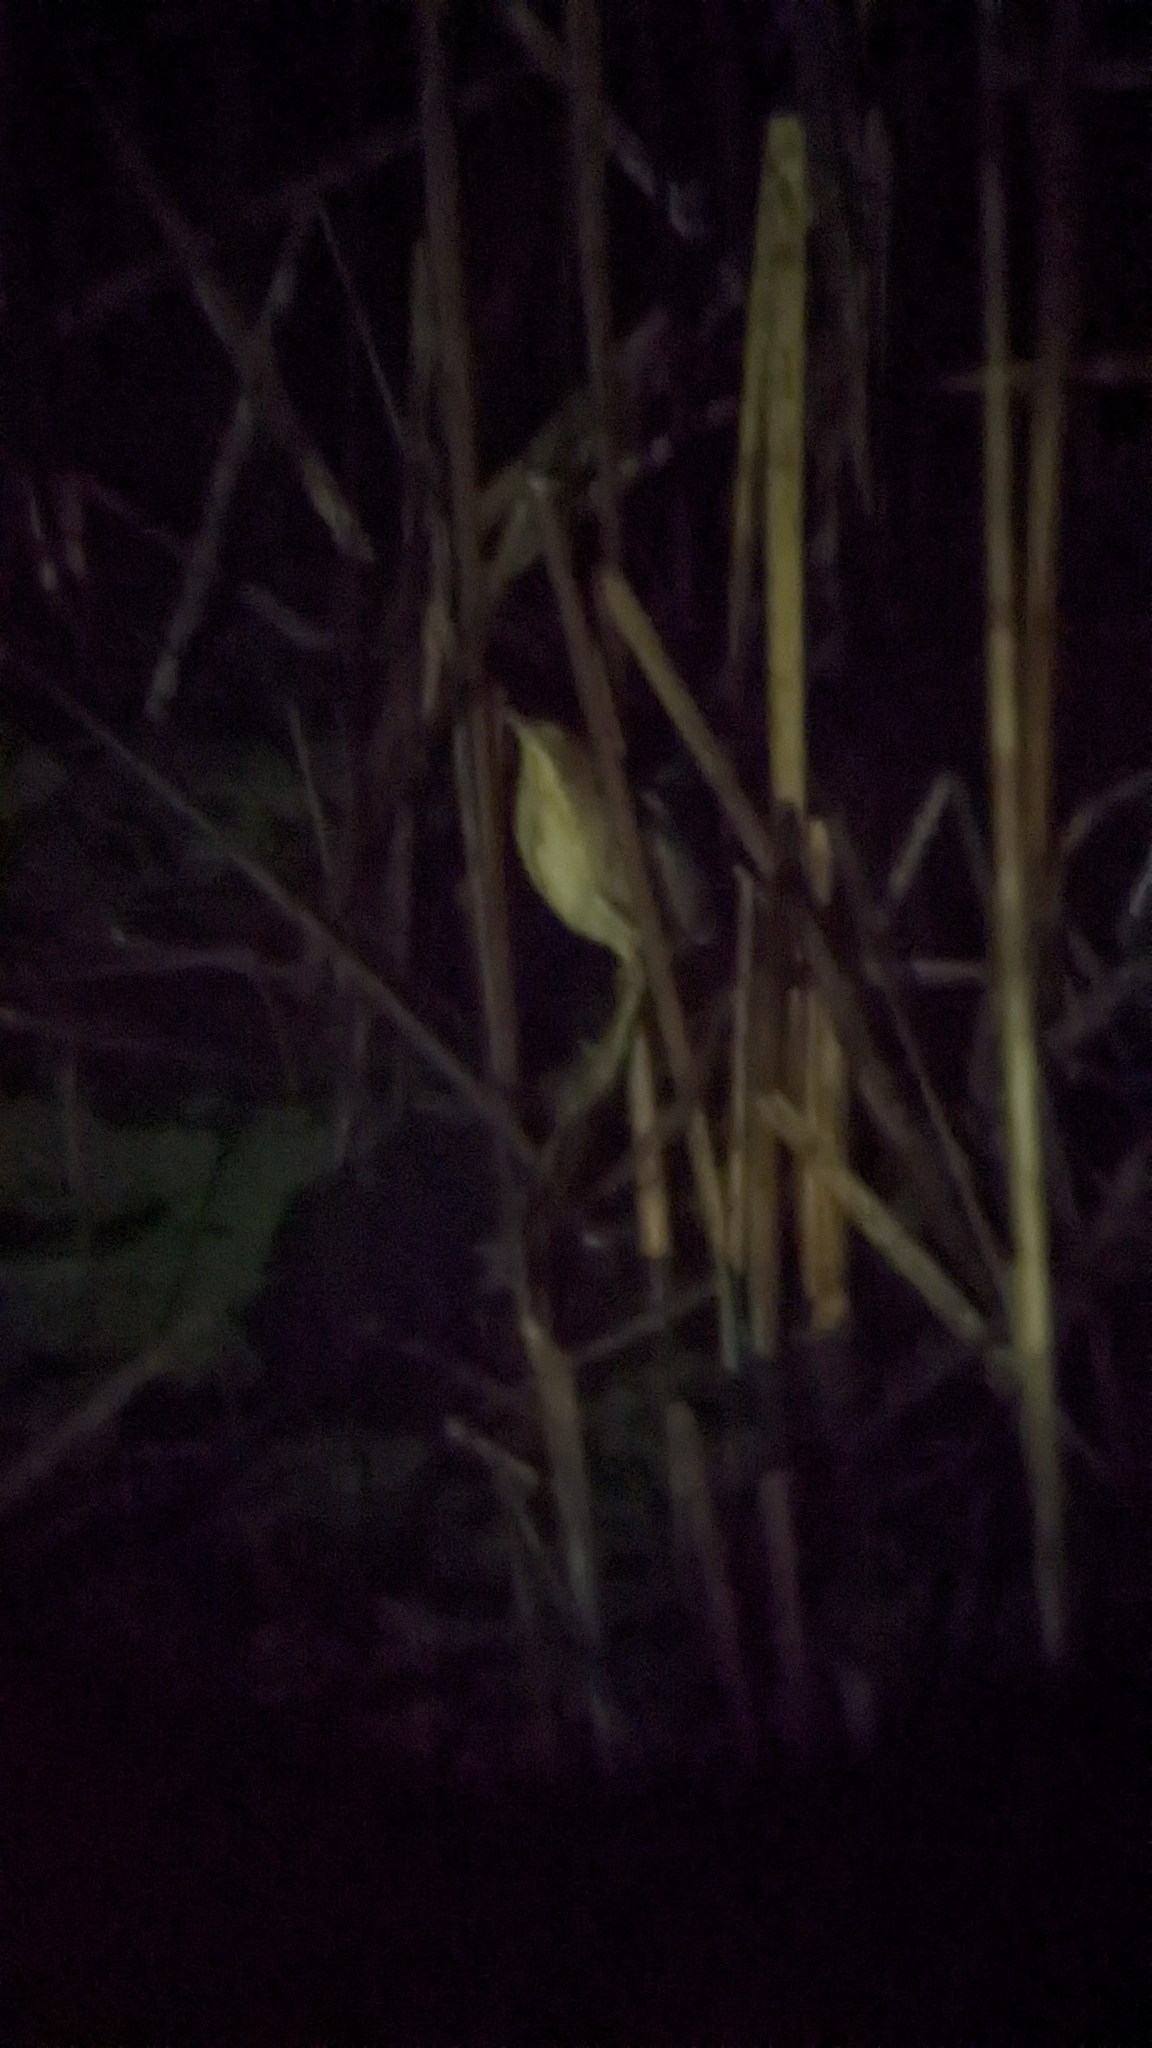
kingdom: Animalia
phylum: Chordata
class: Aves
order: Pelecaniformes
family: Ardeidae
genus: Ixobrychus
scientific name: Ixobrychus exilis
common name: Least bittern
